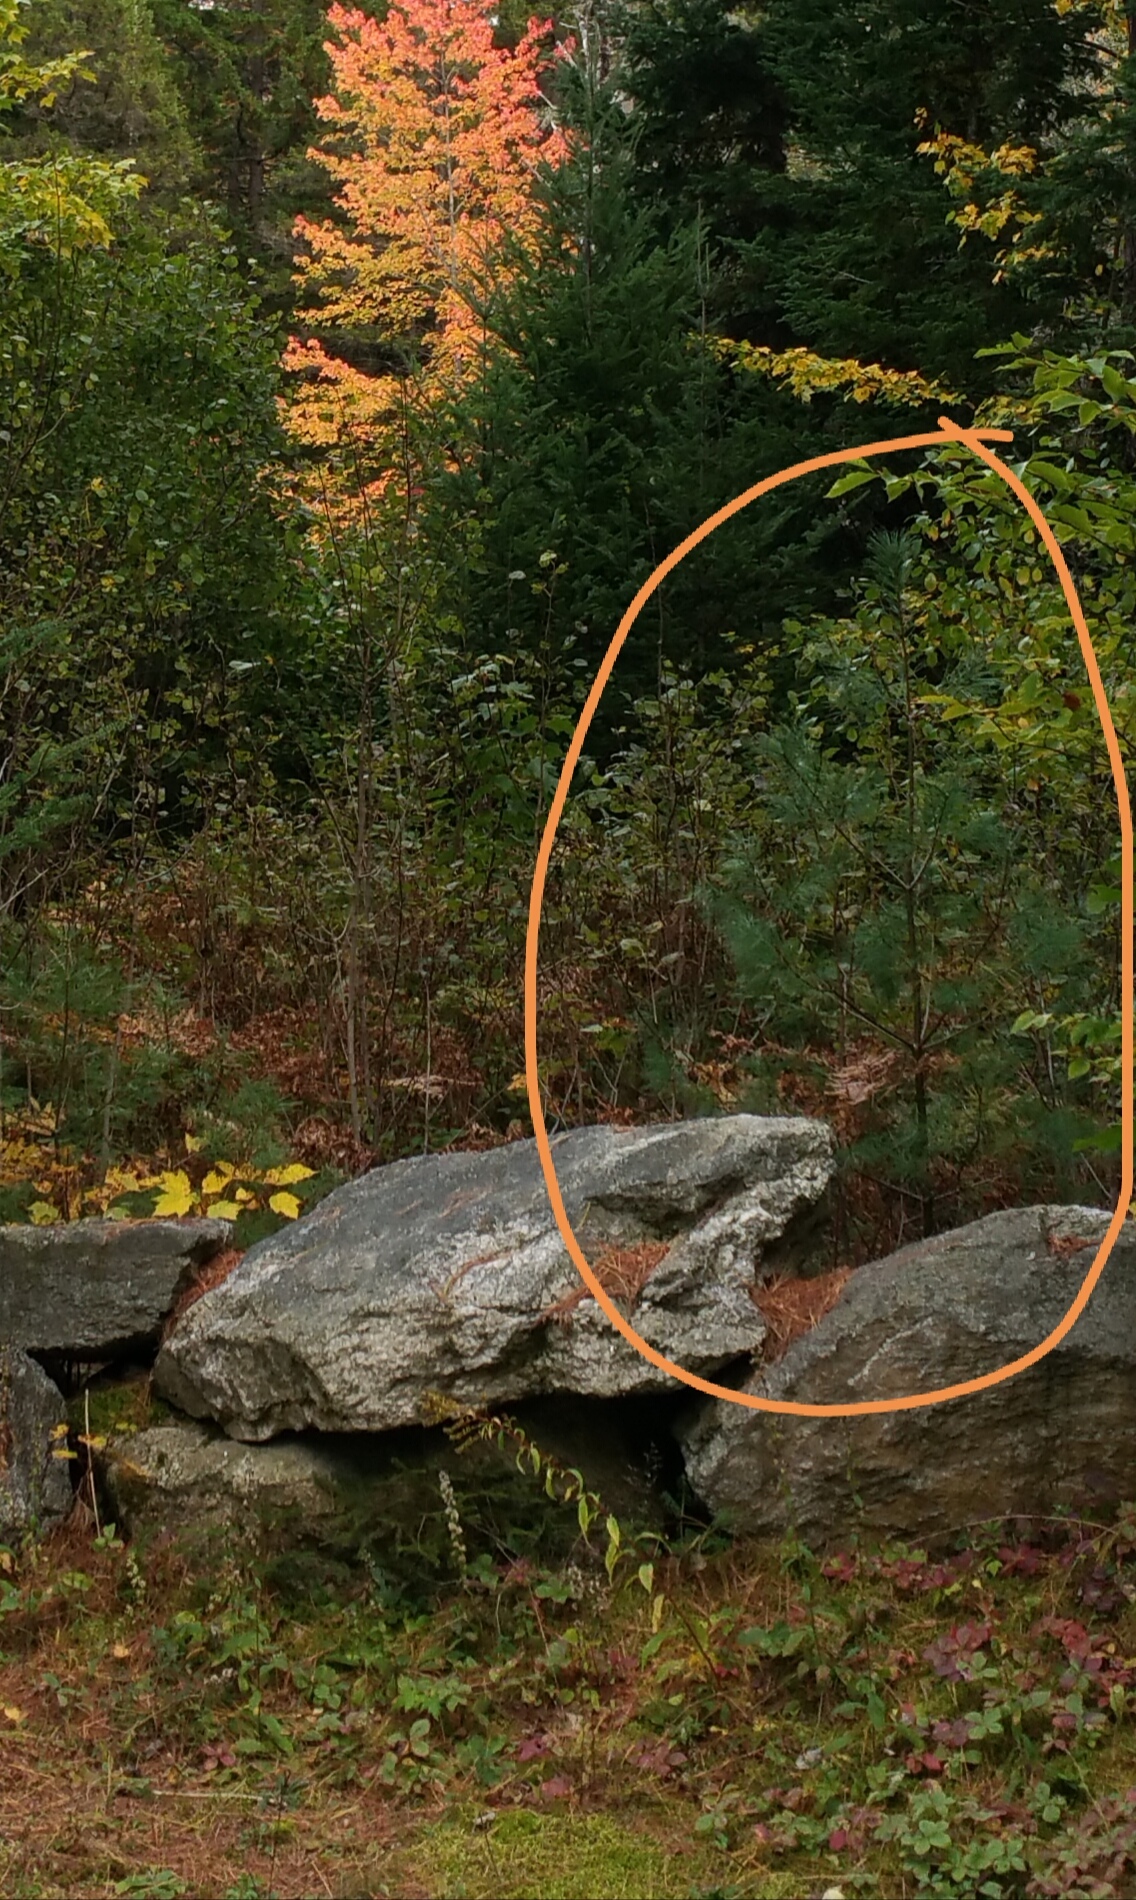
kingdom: Plantae
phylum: Tracheophyta
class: Pinopsida
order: Pinales
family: Pinaceae
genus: Pinus
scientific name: Pinus strobus
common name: Weymouth pine
